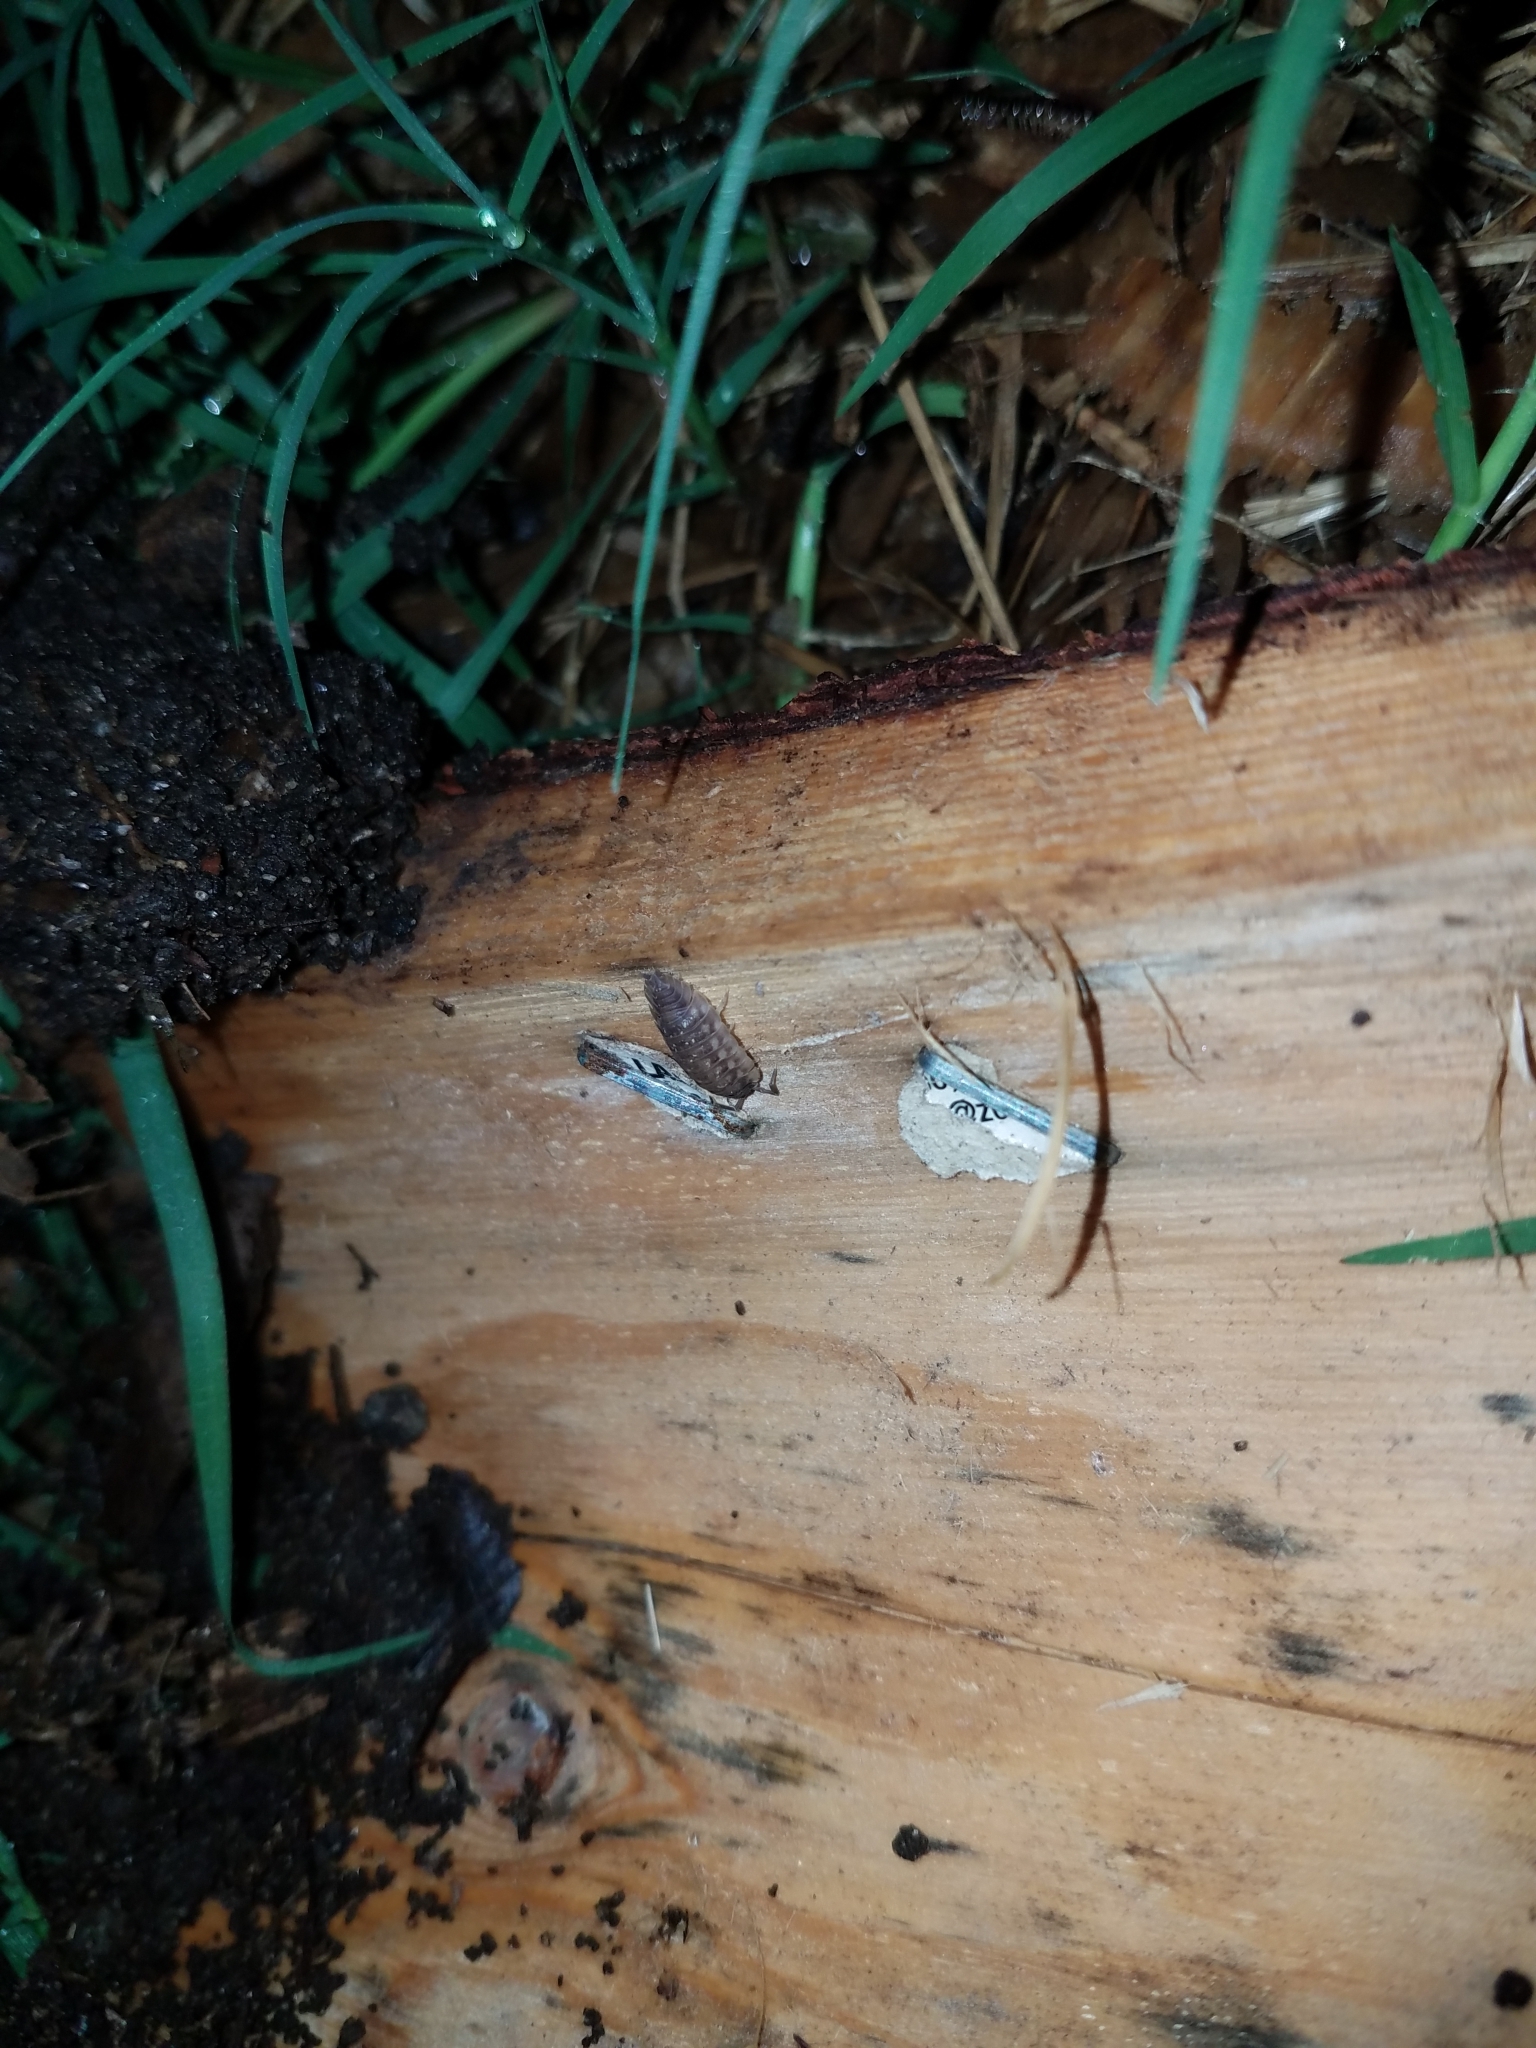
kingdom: Animalia
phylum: Arthropoda
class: Malacostraca
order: Isopoda
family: Oniscidae
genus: Oniscus
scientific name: Oniscus asellus
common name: Common shiny woodlouse
